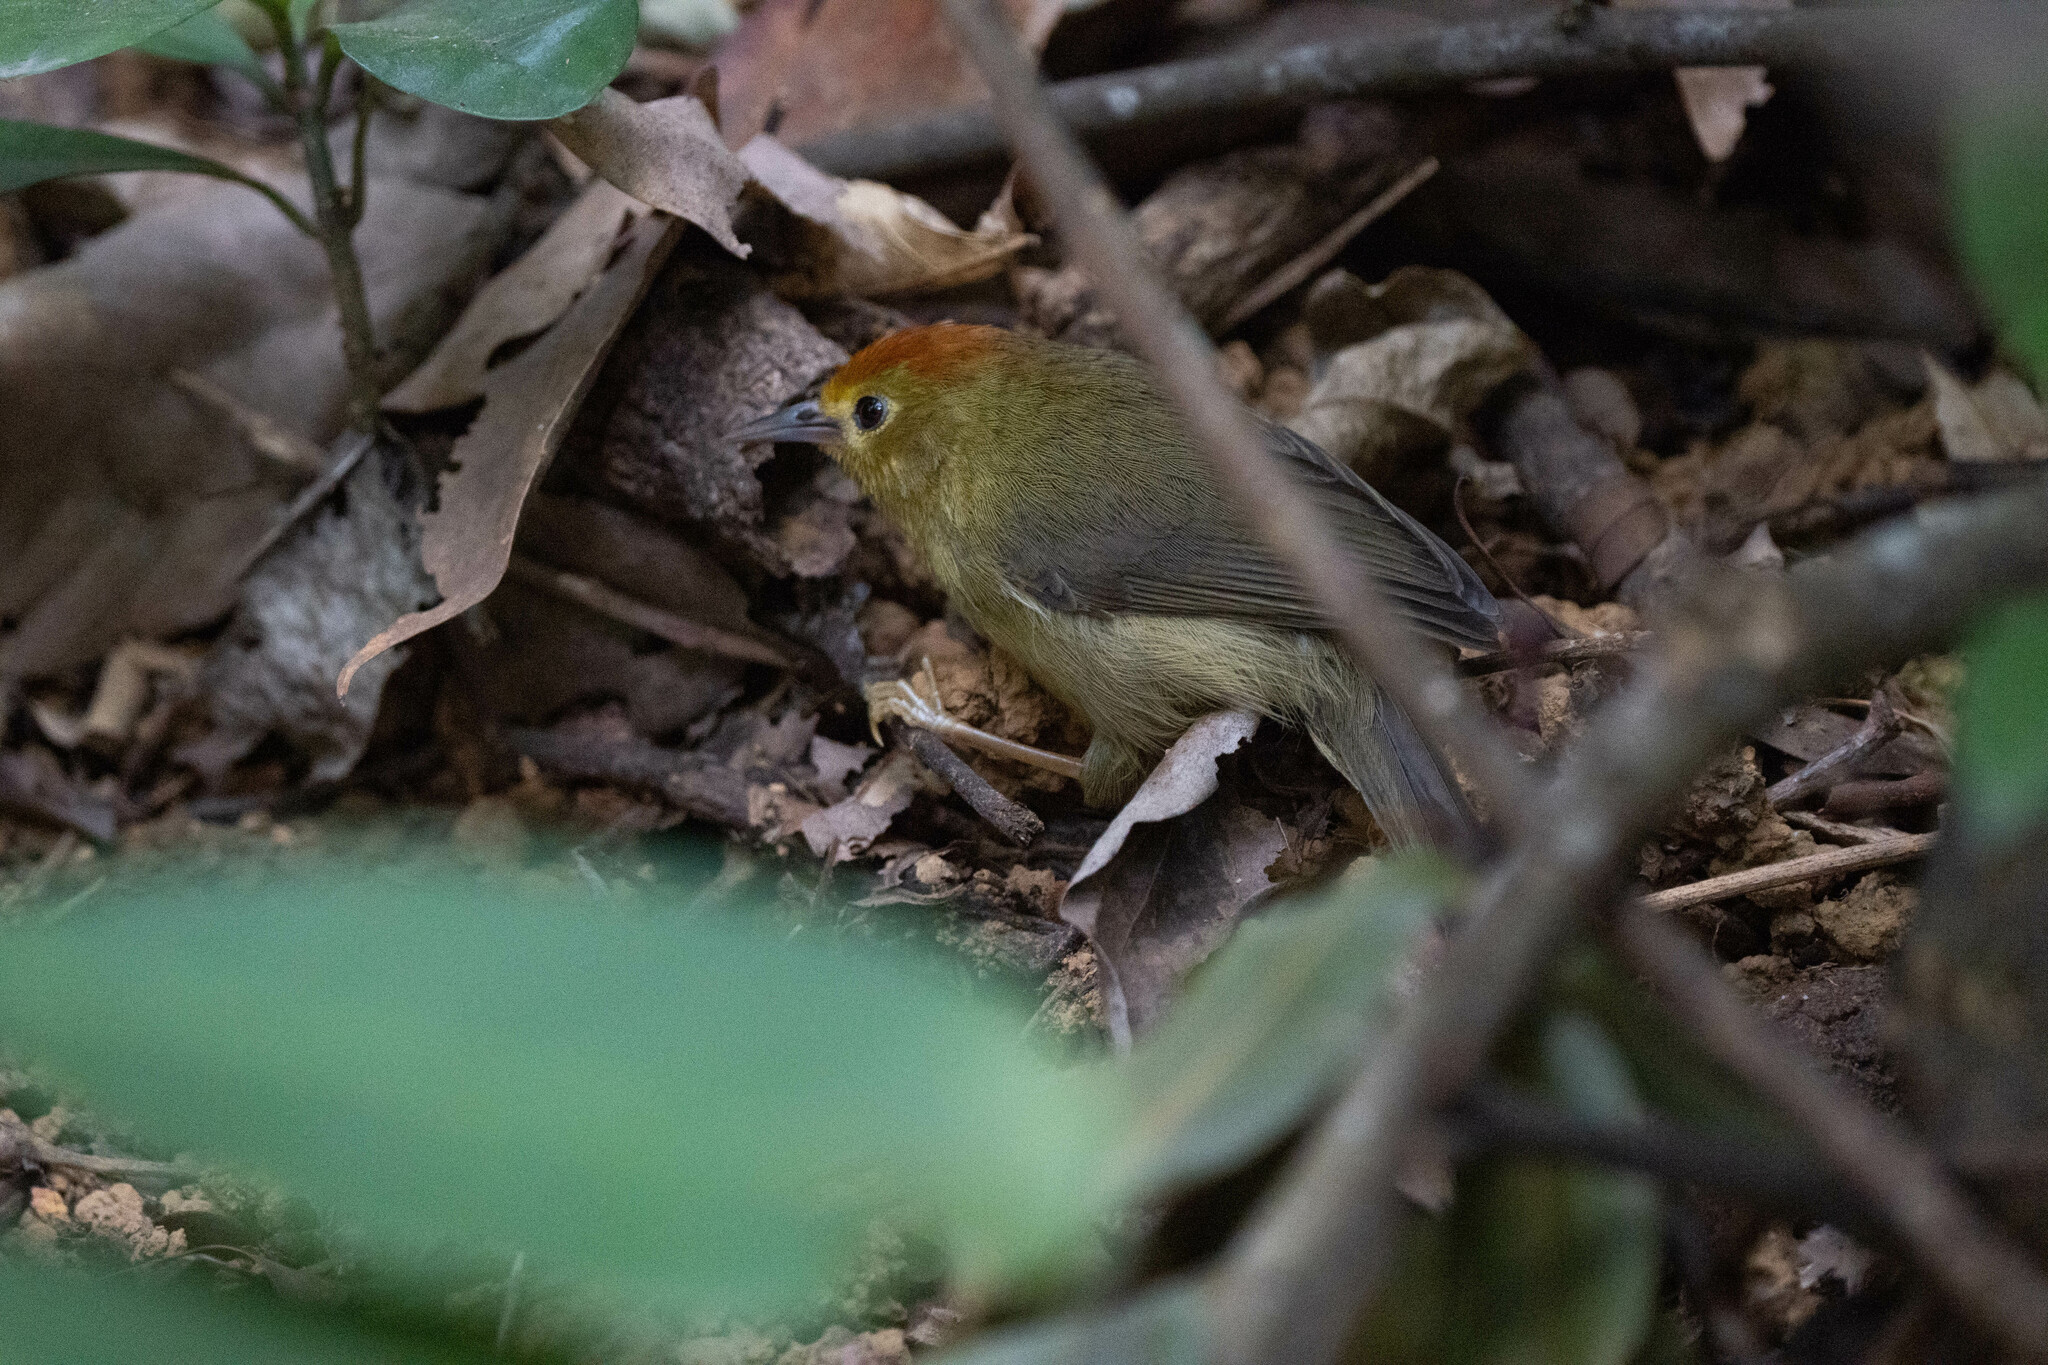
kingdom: Animalia
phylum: Chordata
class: Aves
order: Passeriformes
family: Timaliidae
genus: Stachyridopsis
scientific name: Stachyridopsis ruficeps
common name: Rufous-capped babbler
